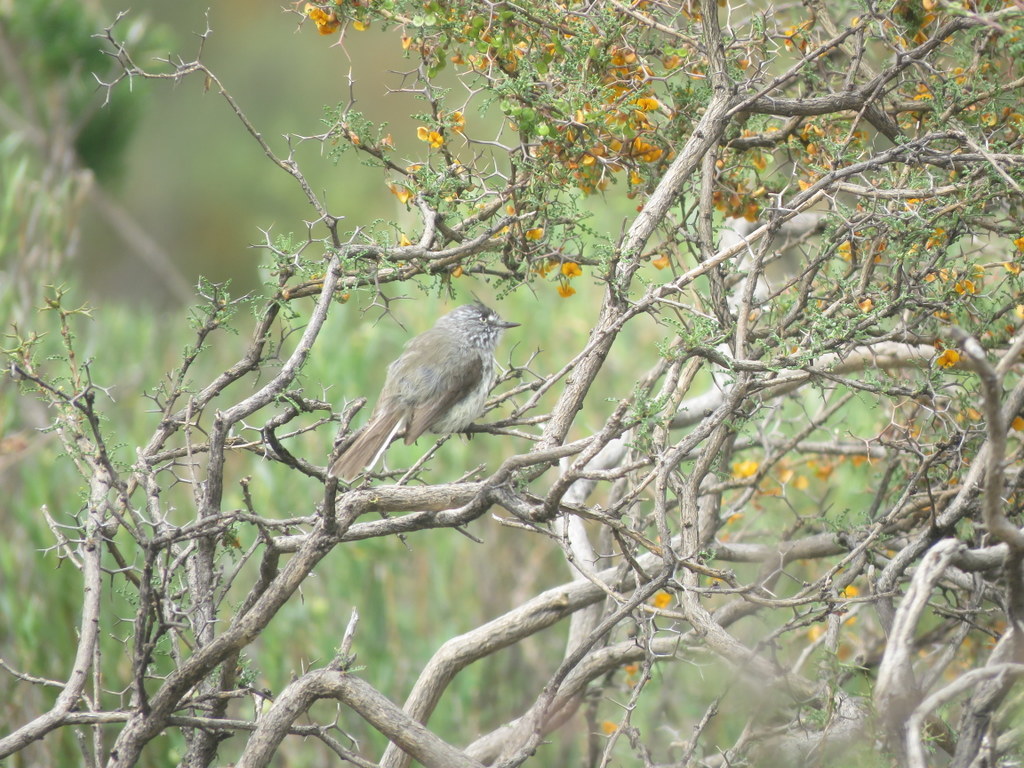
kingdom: Animalia
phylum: Chordata
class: Aves
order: Passeriformes
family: Tyrannidae
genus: Anairetes
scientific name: Anairetes parulus
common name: Tufted tit-tyrant
